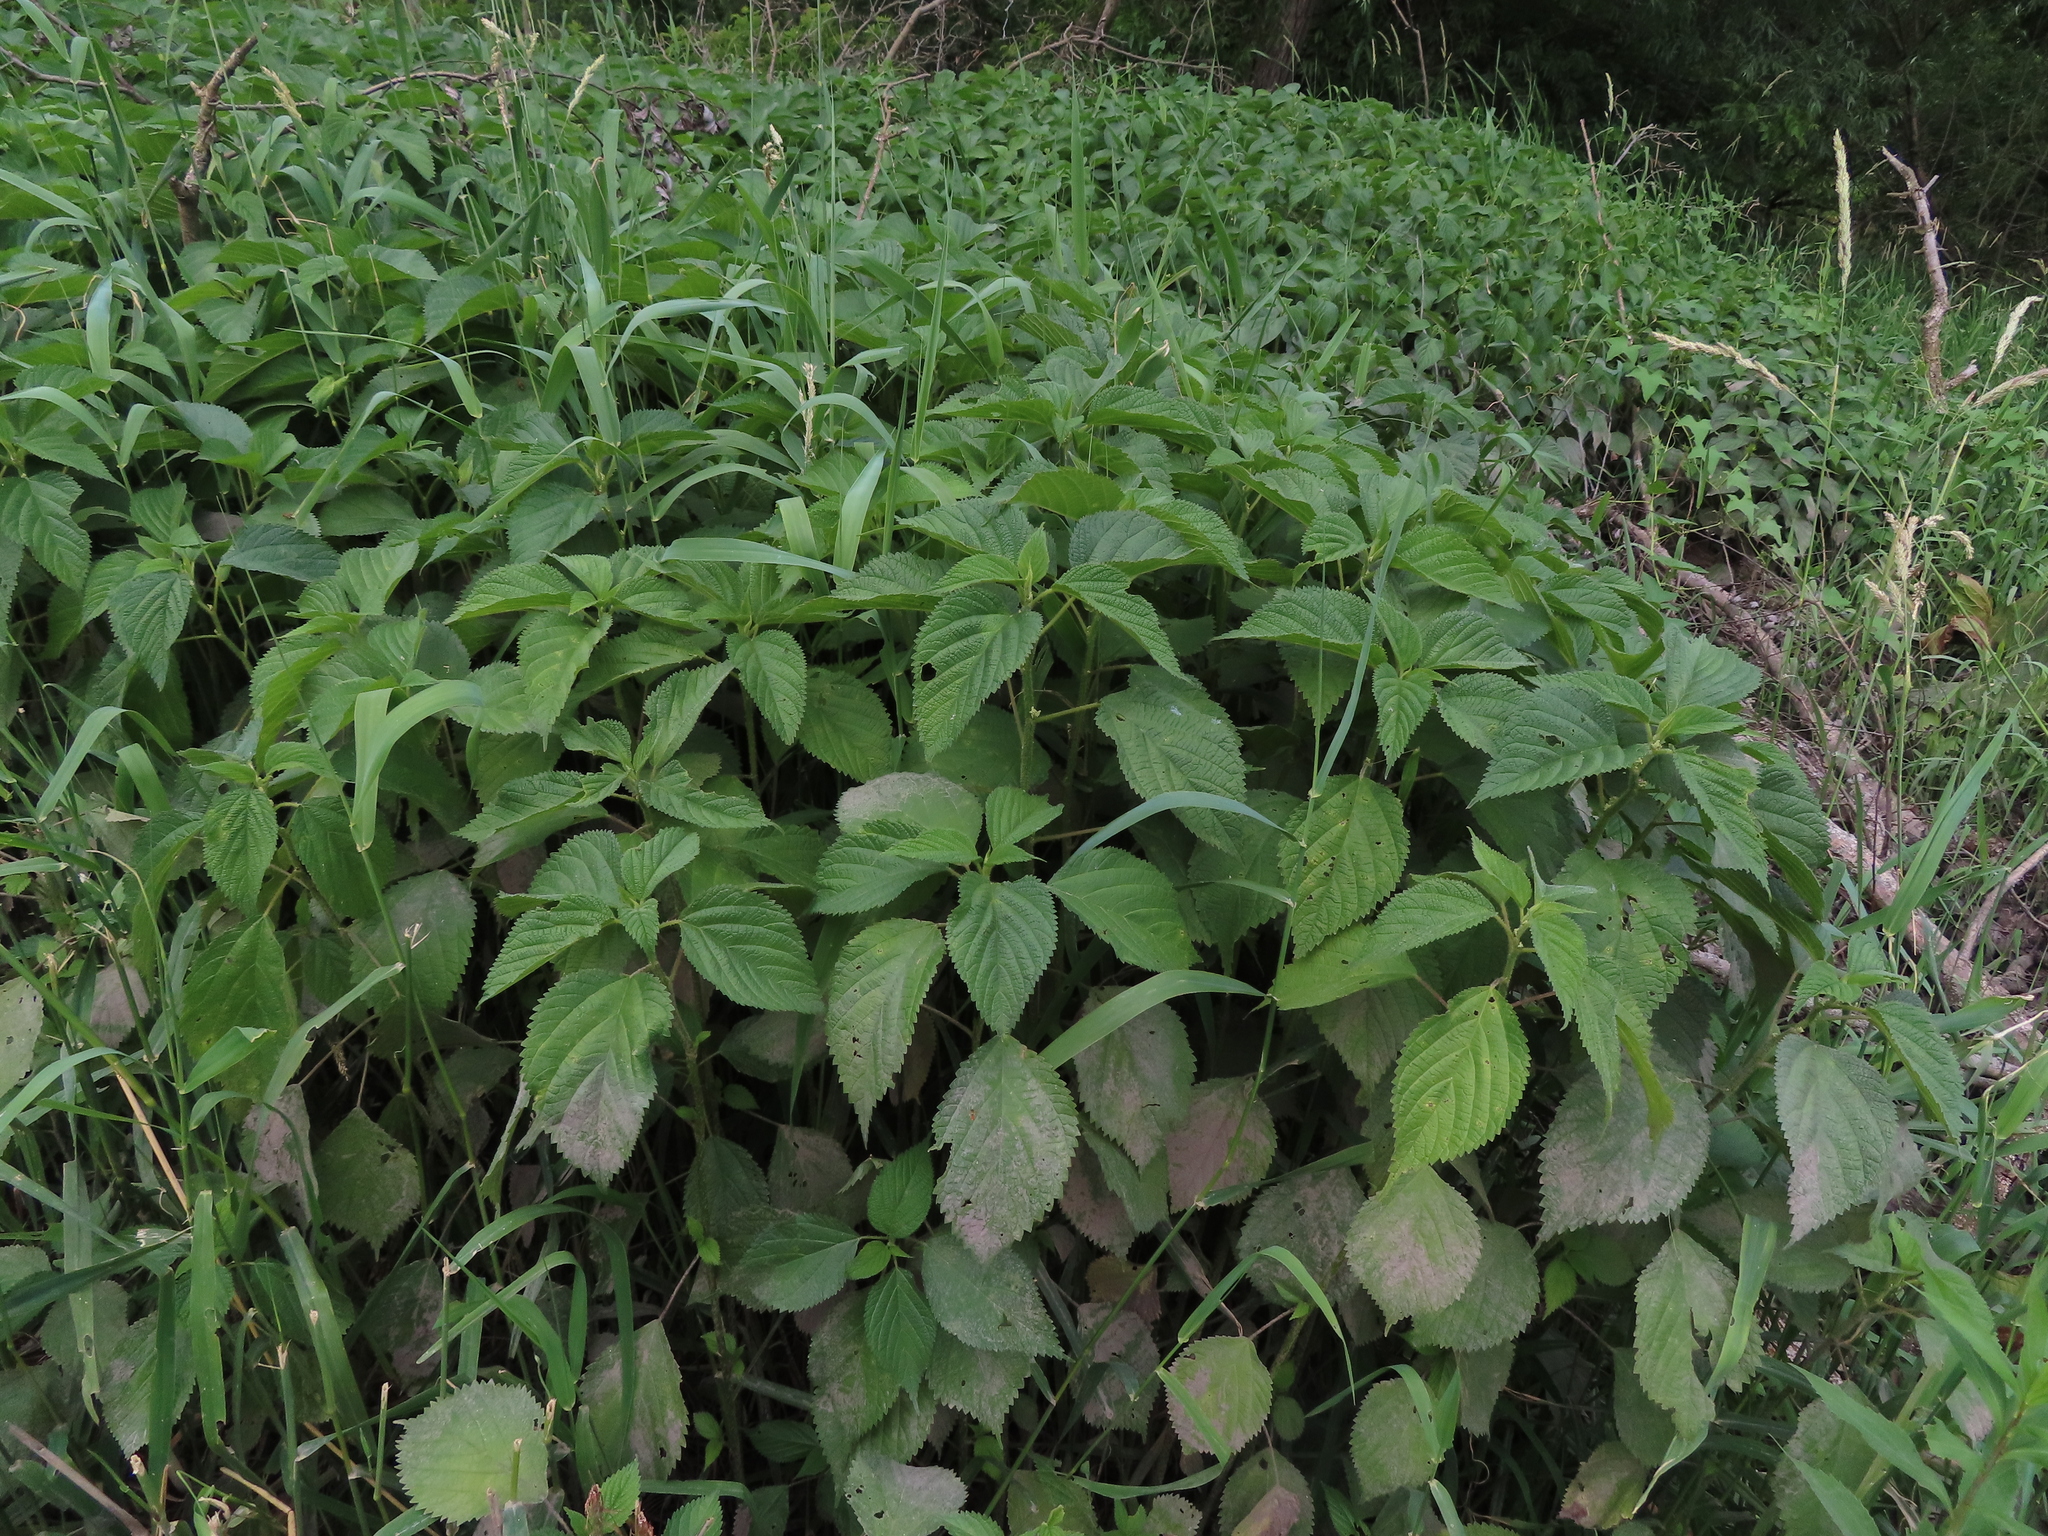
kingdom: Plantae
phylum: Tracheophyta
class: Magnoliopsida
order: Rosales
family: Urticaceae
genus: Laportea
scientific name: Laportea canadensis
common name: Canada nettle
